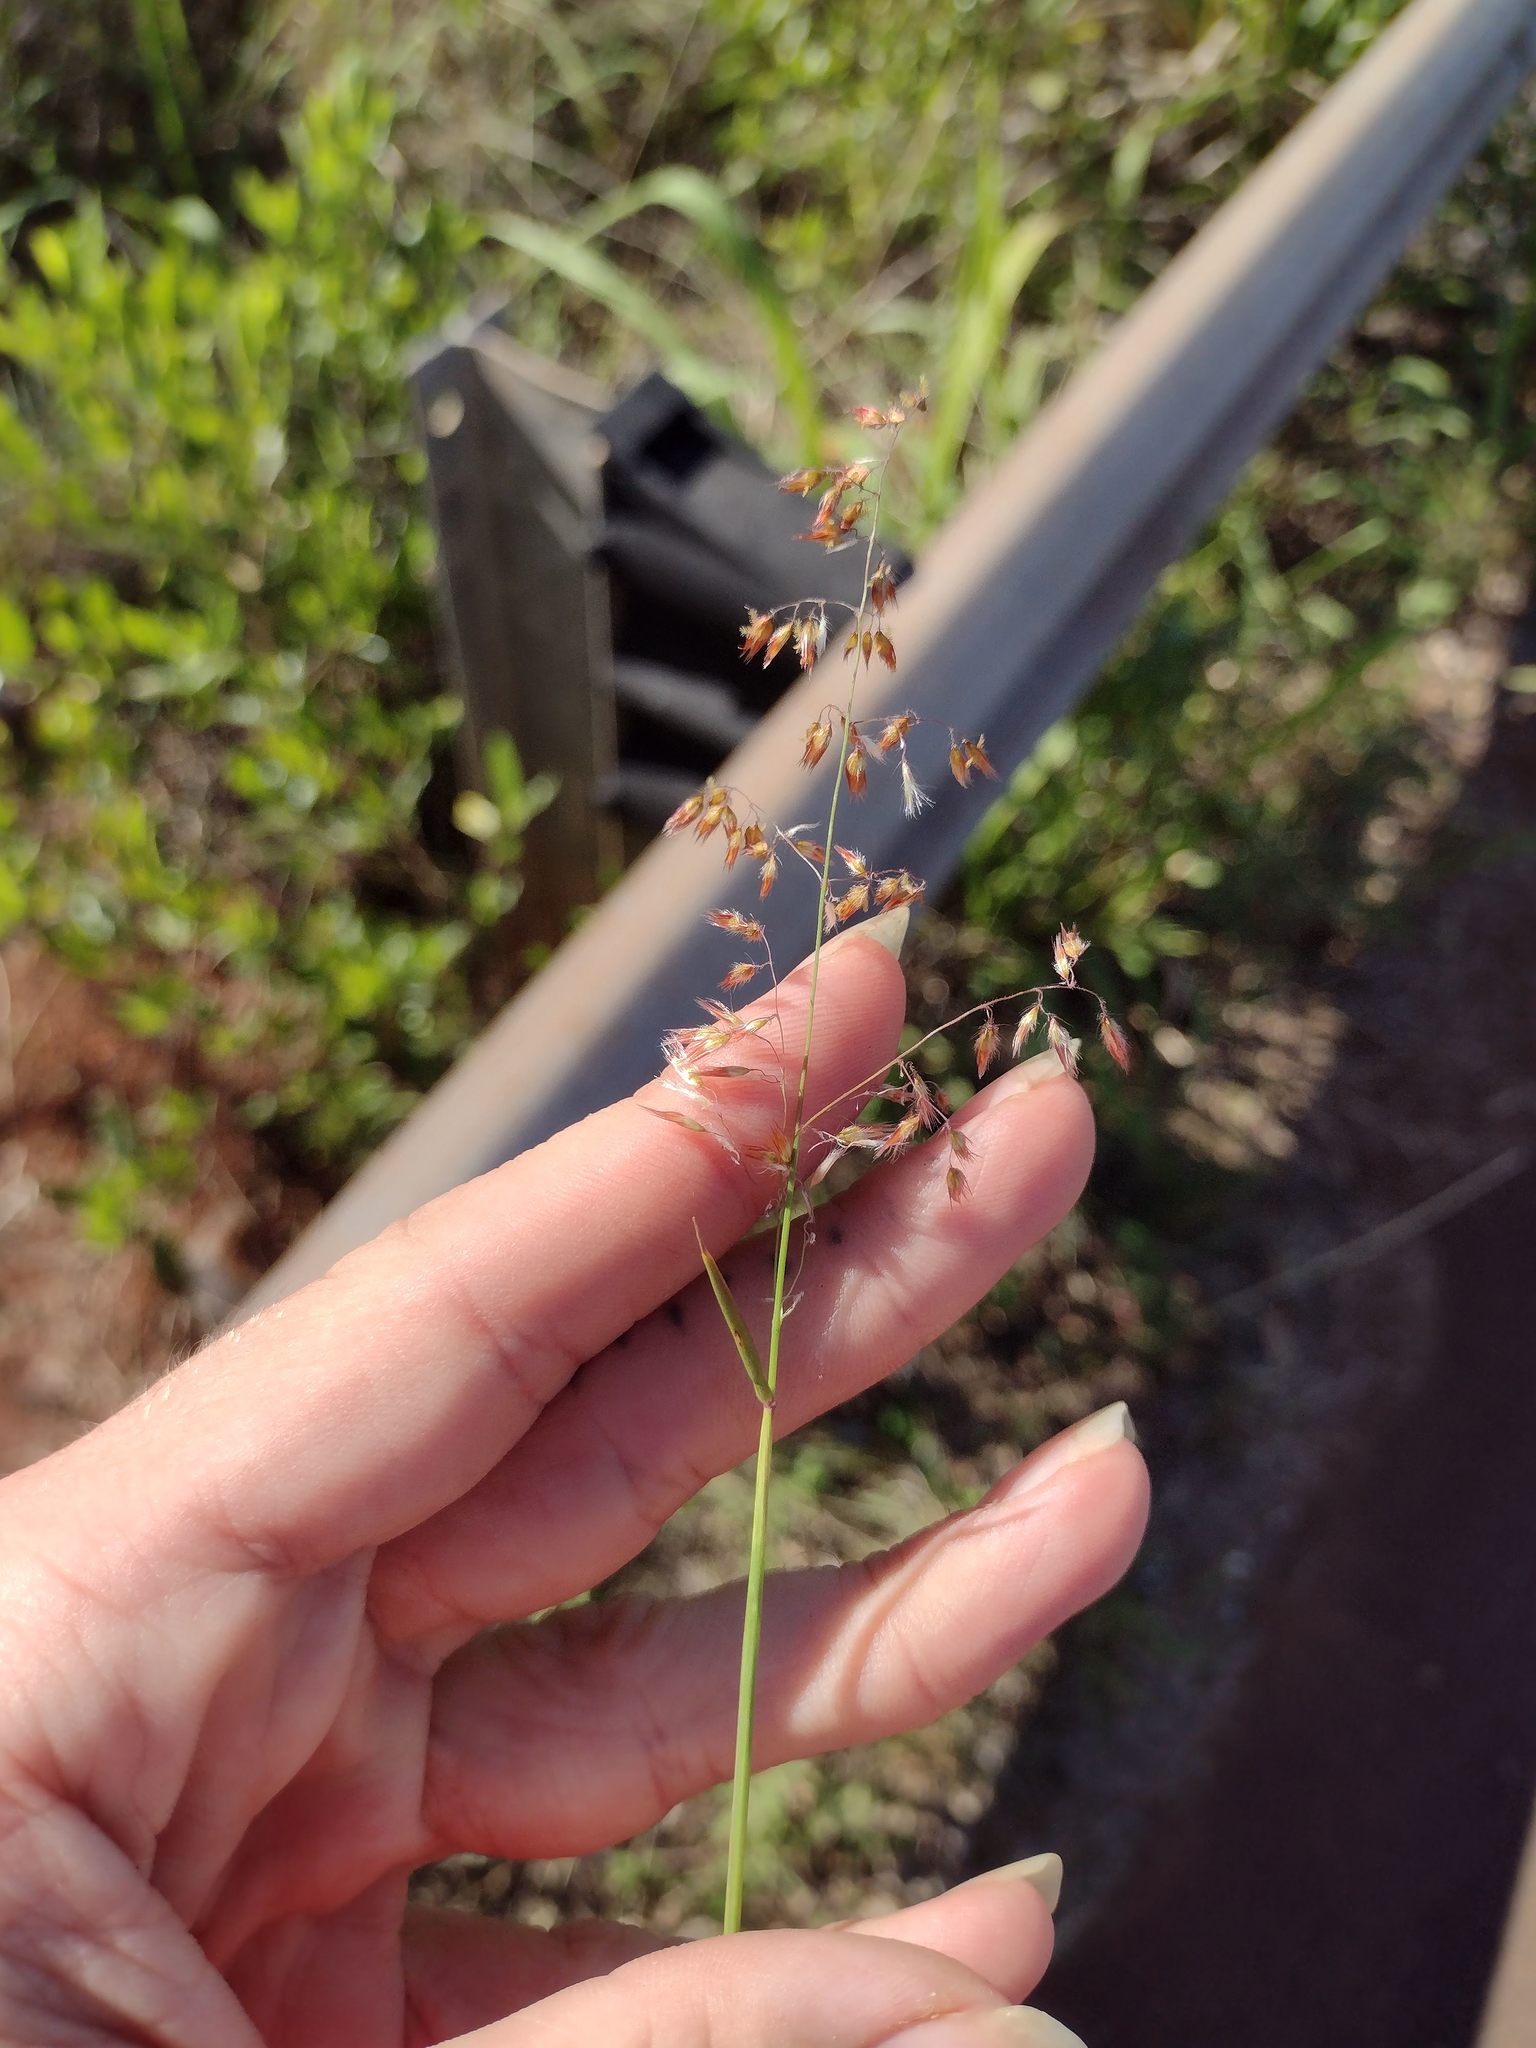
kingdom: Plantae
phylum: Tracheophyta
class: Liliopsida
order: Poales
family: Poaceae
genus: Melinis
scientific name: Melinis repens
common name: Rose natal grass
